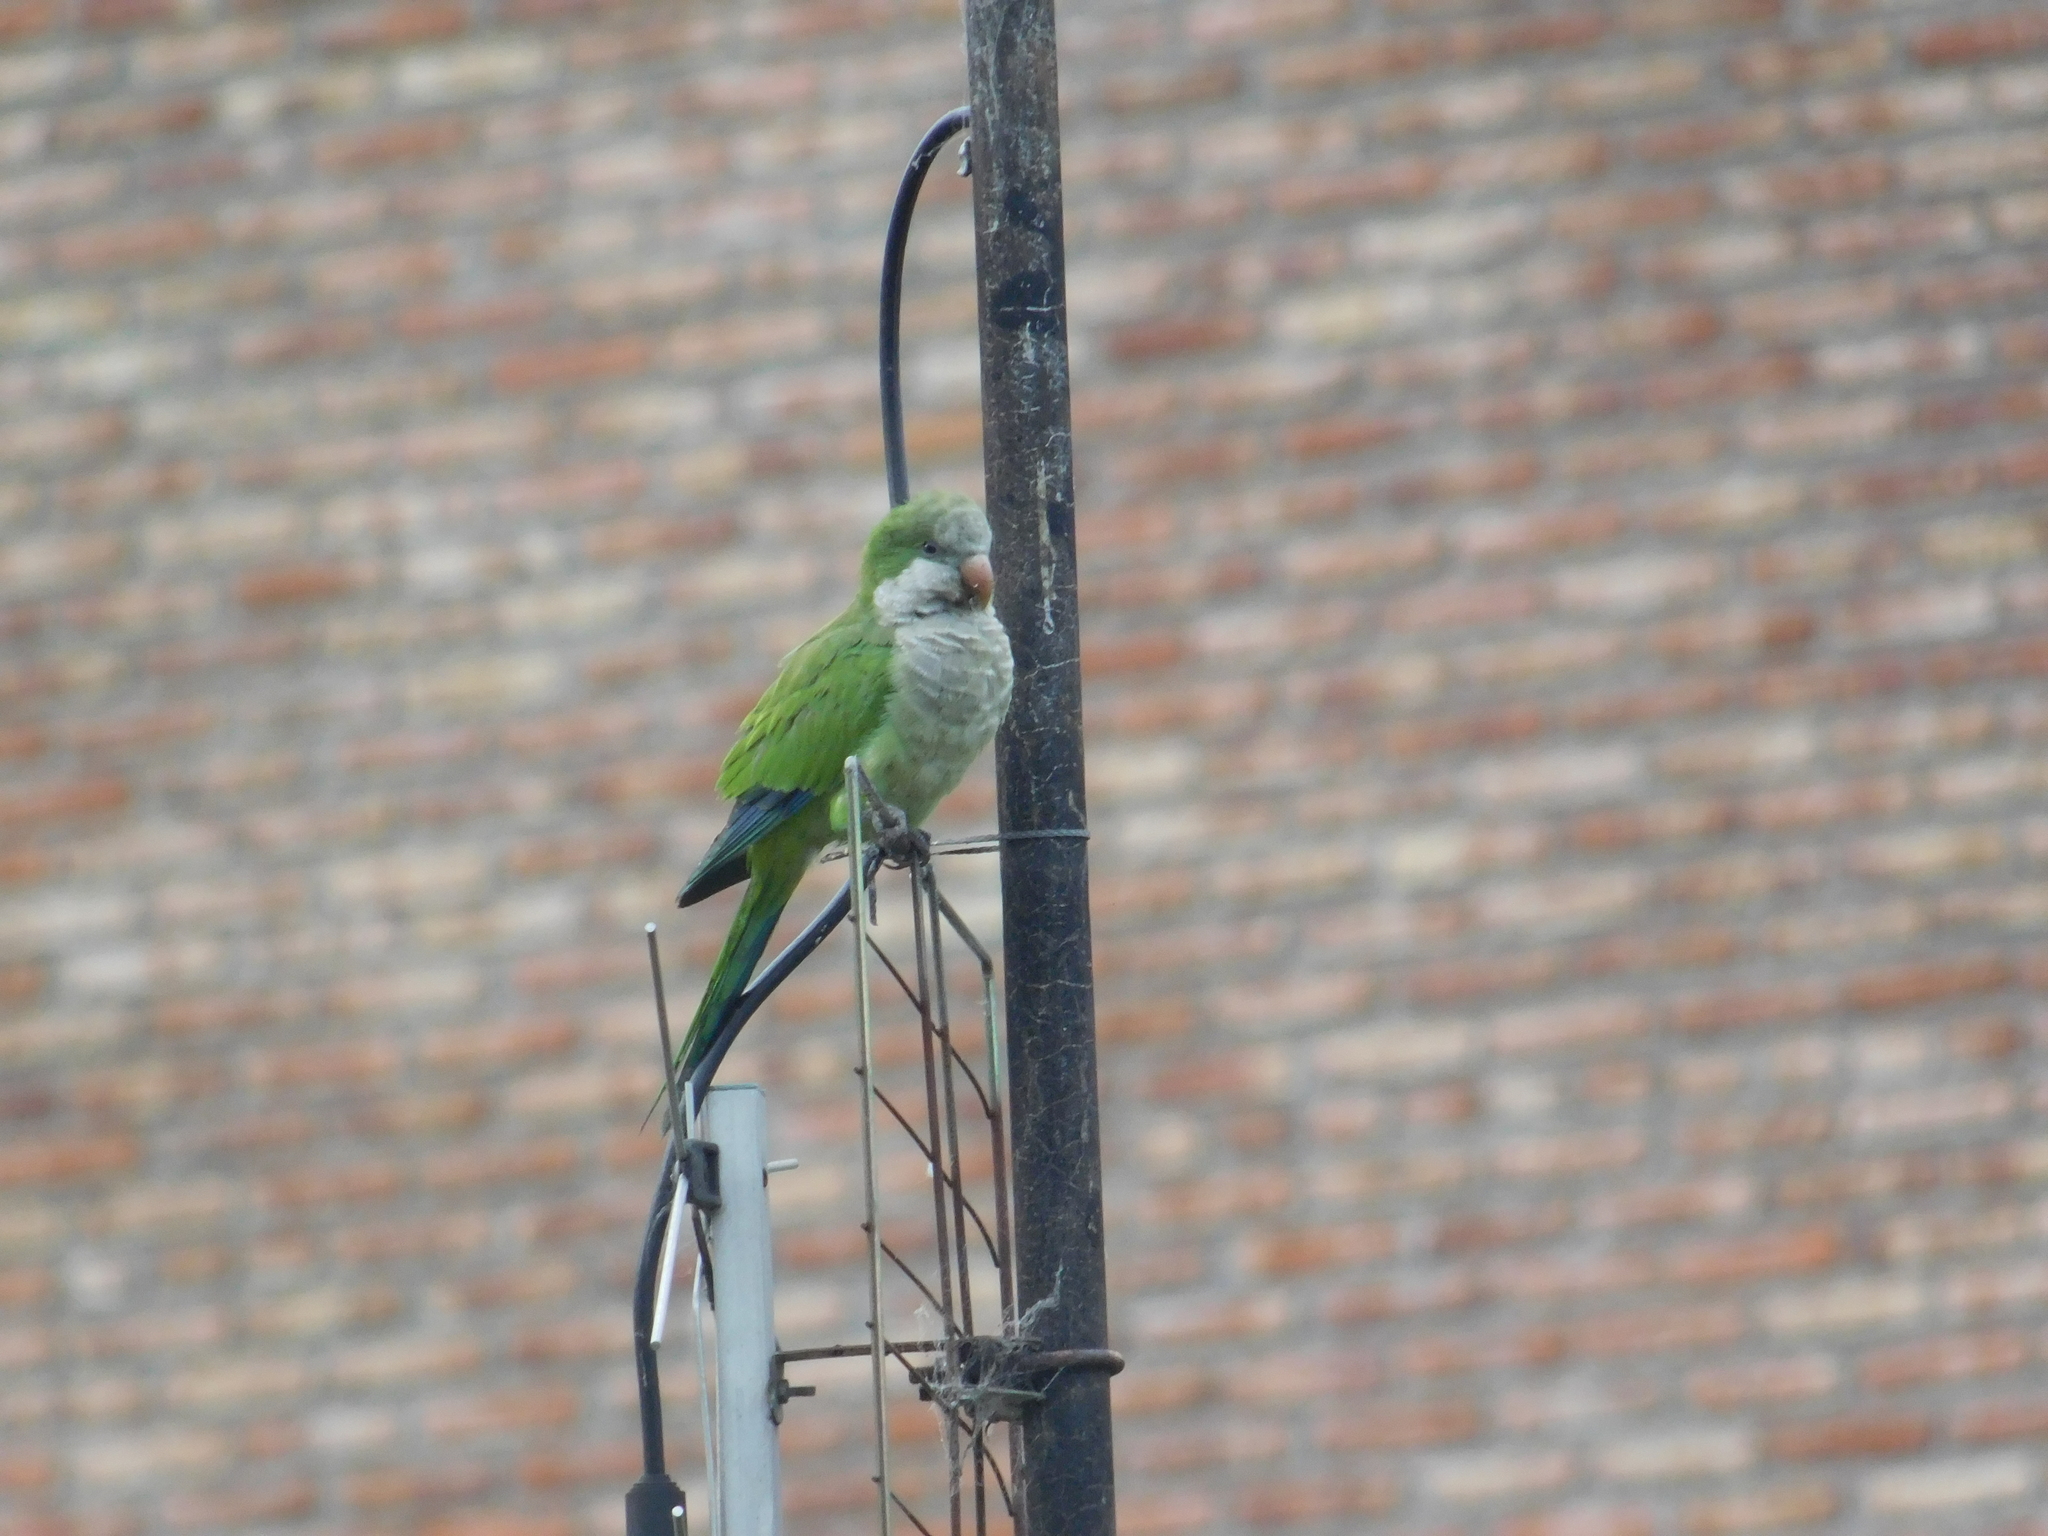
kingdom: Animalia
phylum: Chordata
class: Aves
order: Psittaciformes
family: Psittacidae
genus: Myiopsitta
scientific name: Myiopsitta monachus
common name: Monk parakeet
